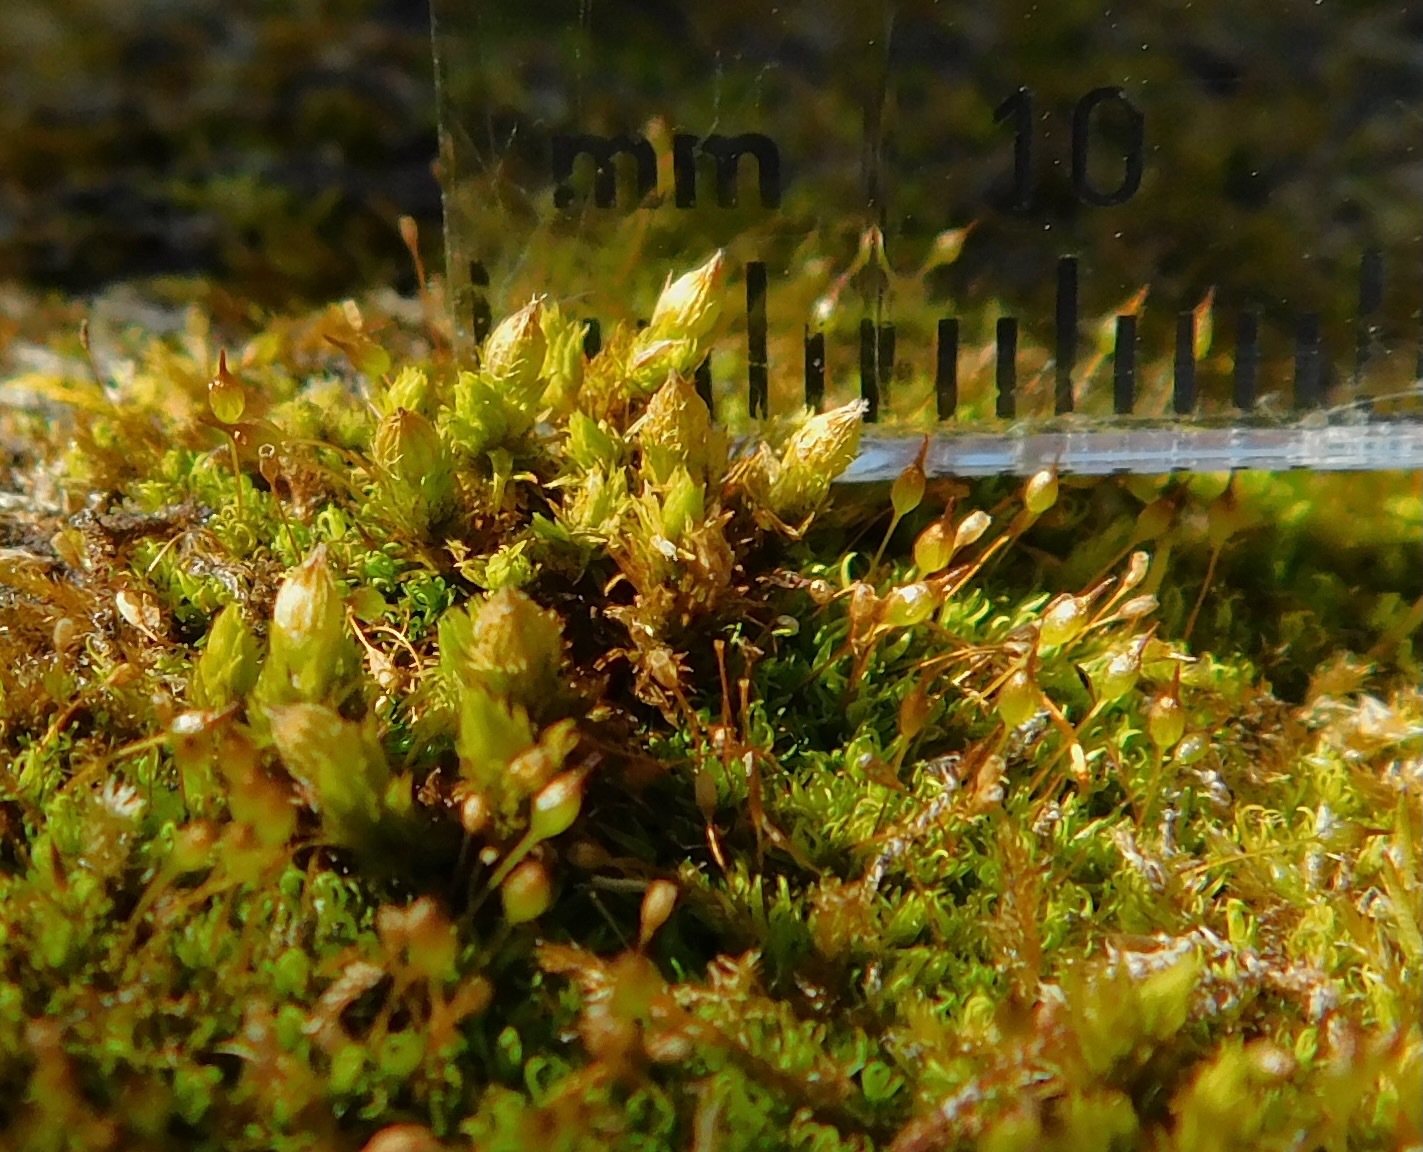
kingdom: Plantae
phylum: Bryophyta
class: Bryopsida
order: Orthotrichales
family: Orthotrichaceae
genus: Orthotrichum
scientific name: Orthotrichum strangulatum
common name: Limestone bristle moss
